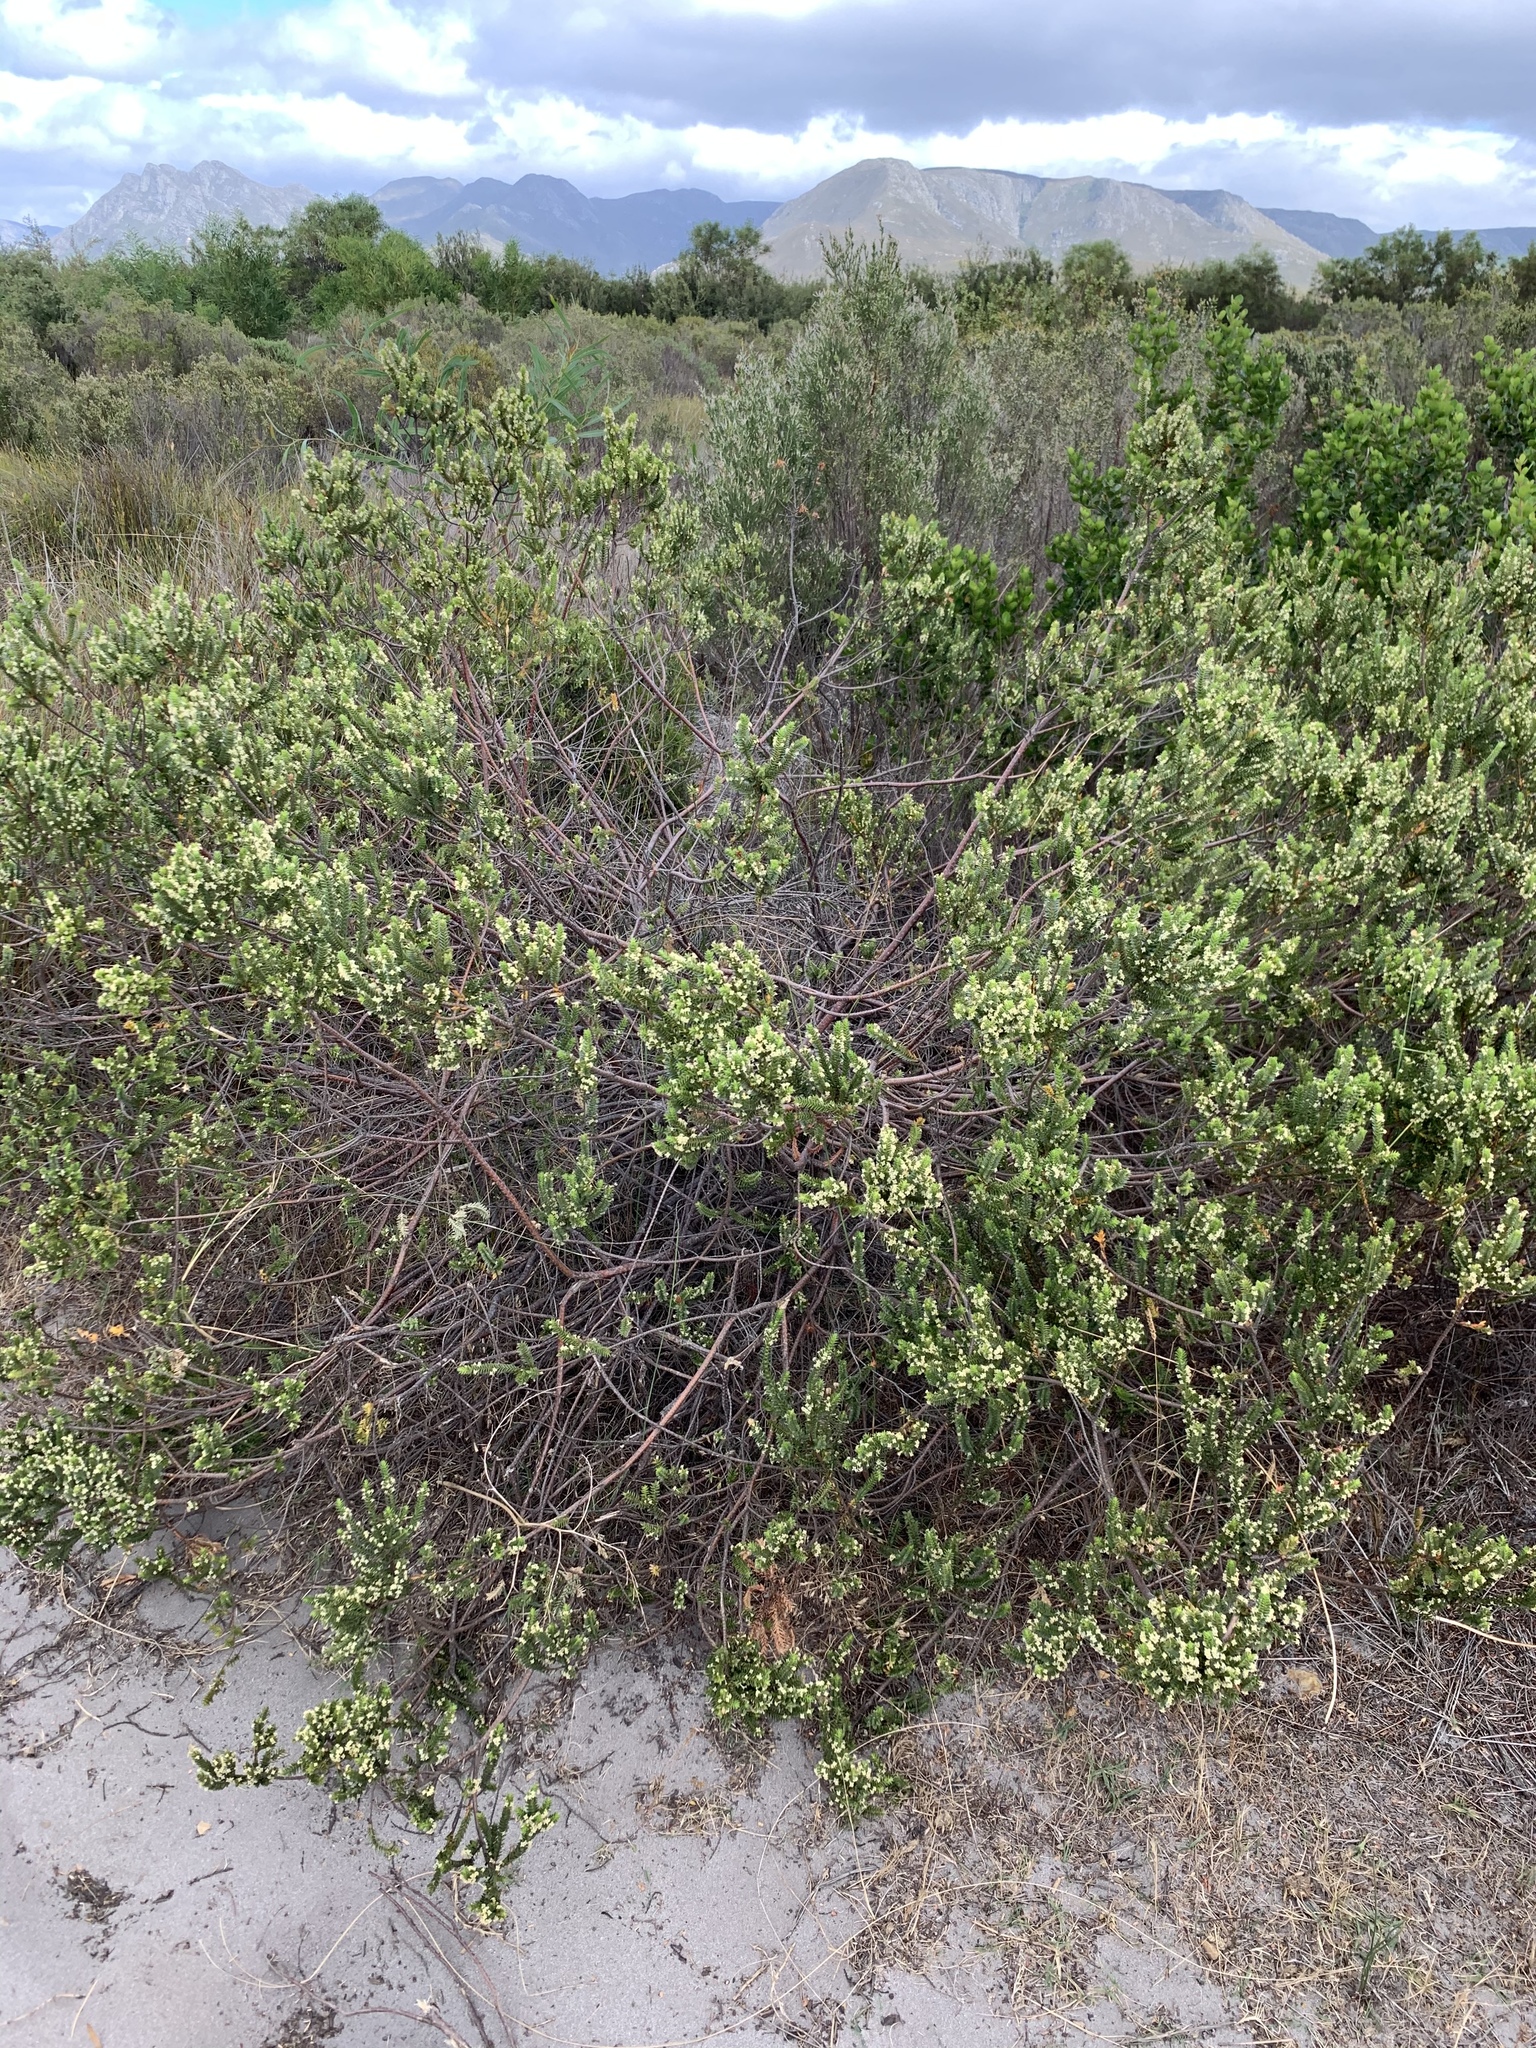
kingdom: Plantae
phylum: Tracheophyta
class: Magnoliopsida
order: Malvales
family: Thymelaeaceae
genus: Struthiola
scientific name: Struthiola striata
